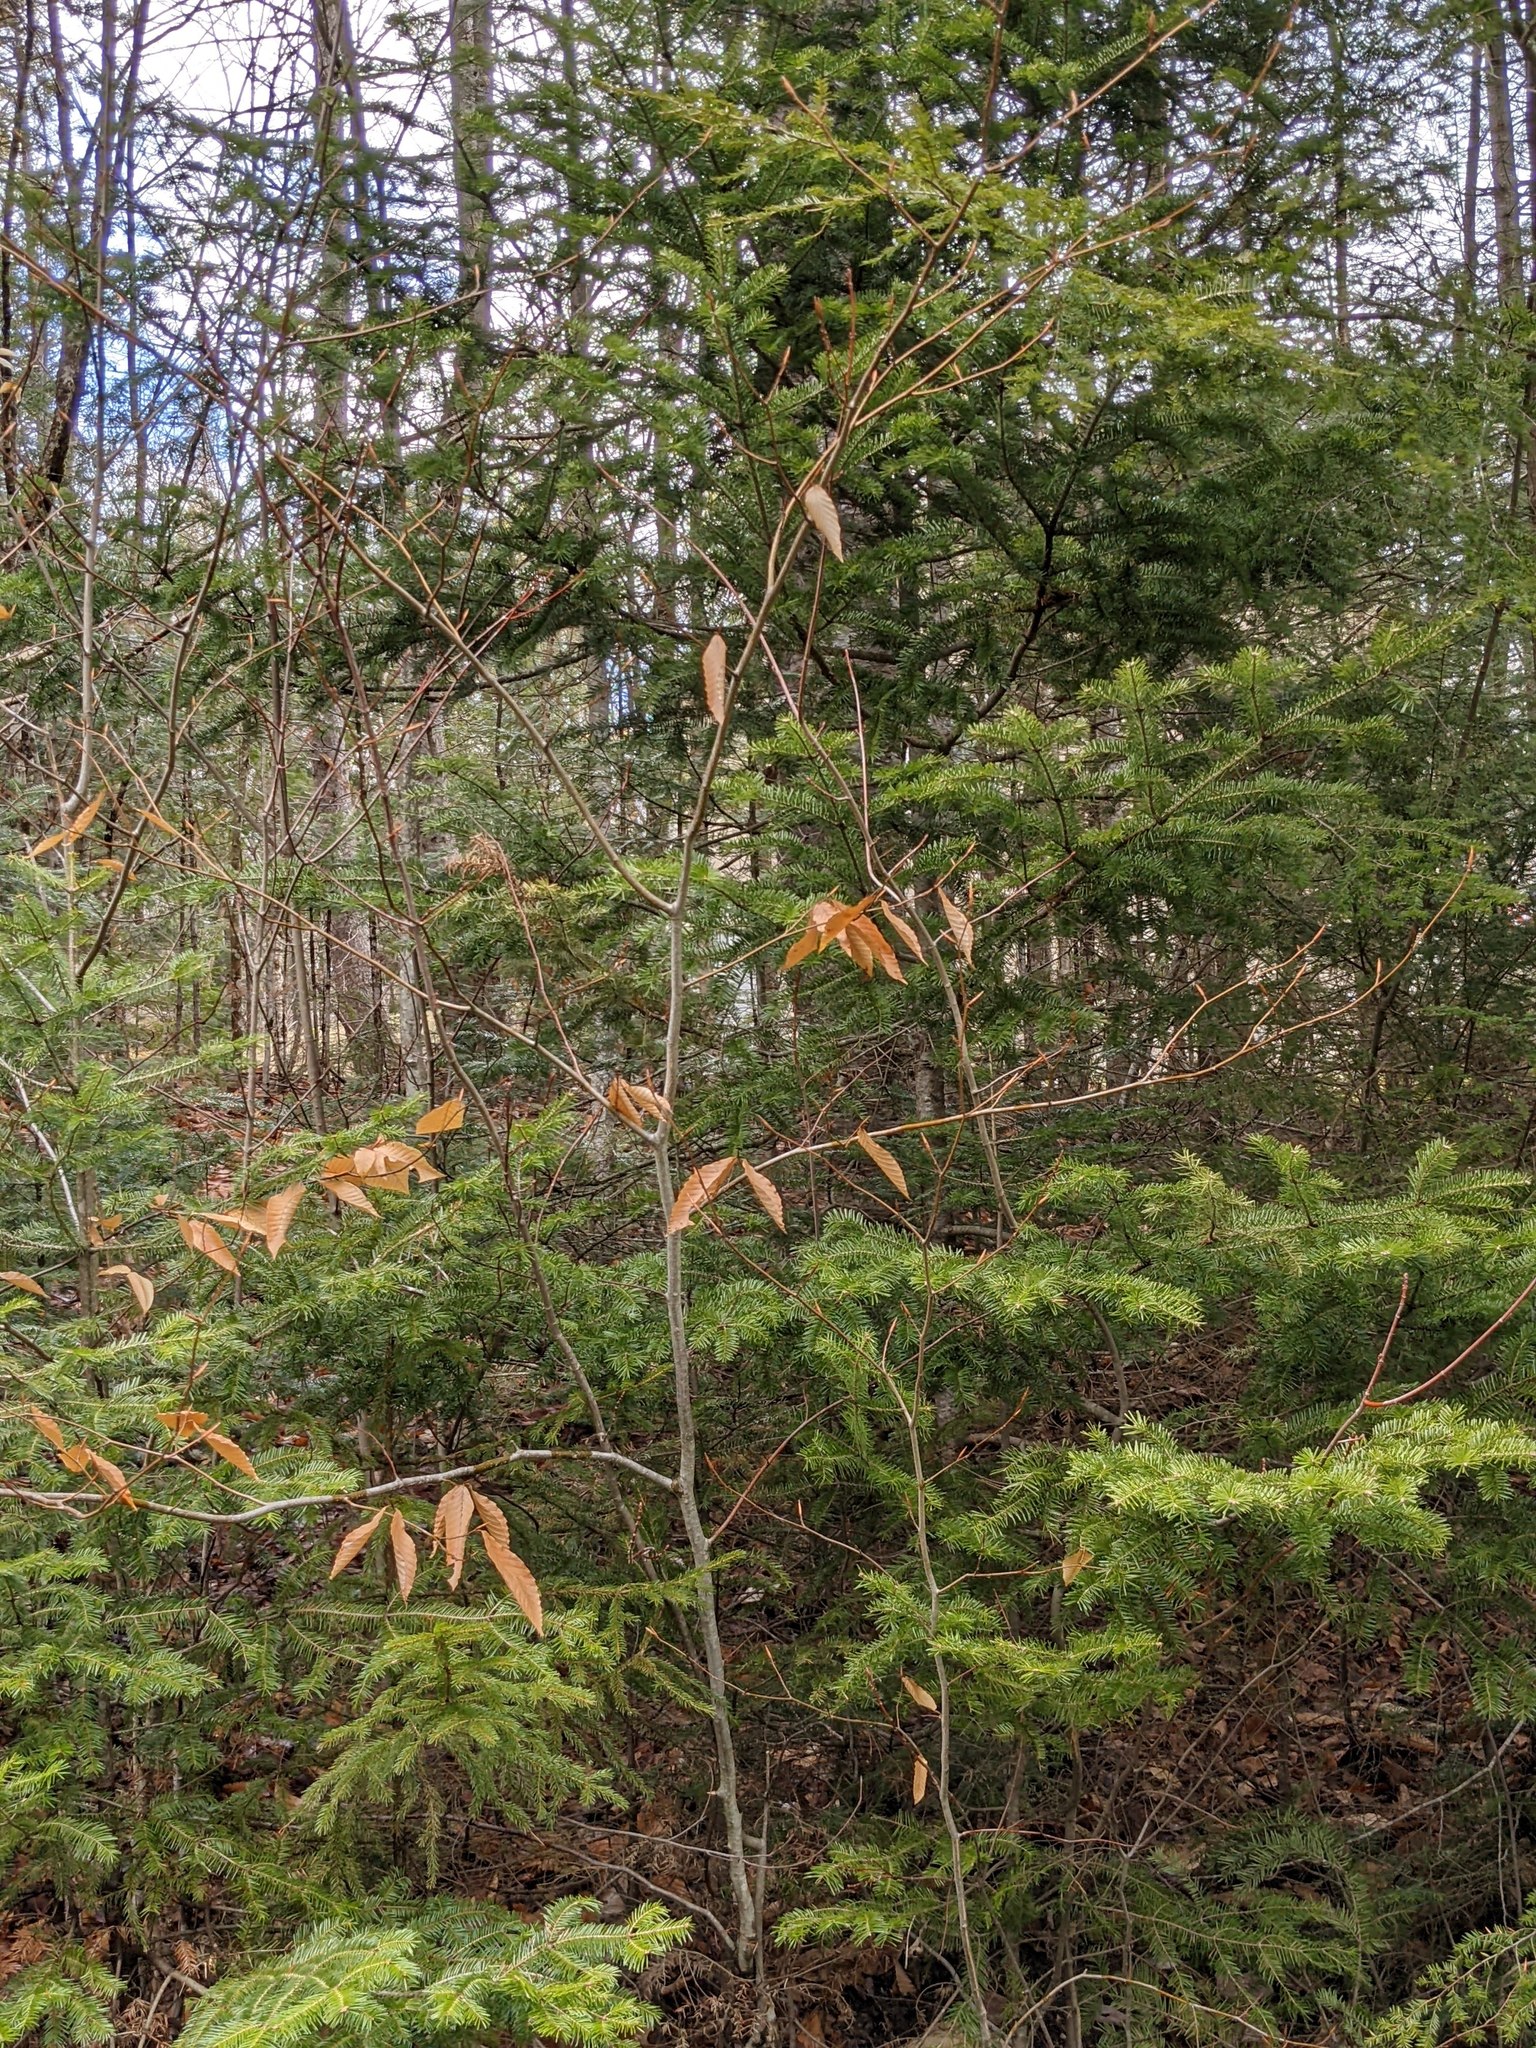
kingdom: Plantae
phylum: Tracheophyta
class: Magnoliopsida
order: Fagales
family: Fagaceae
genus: Fagus
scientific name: Fagus grandifolia
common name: American beech
